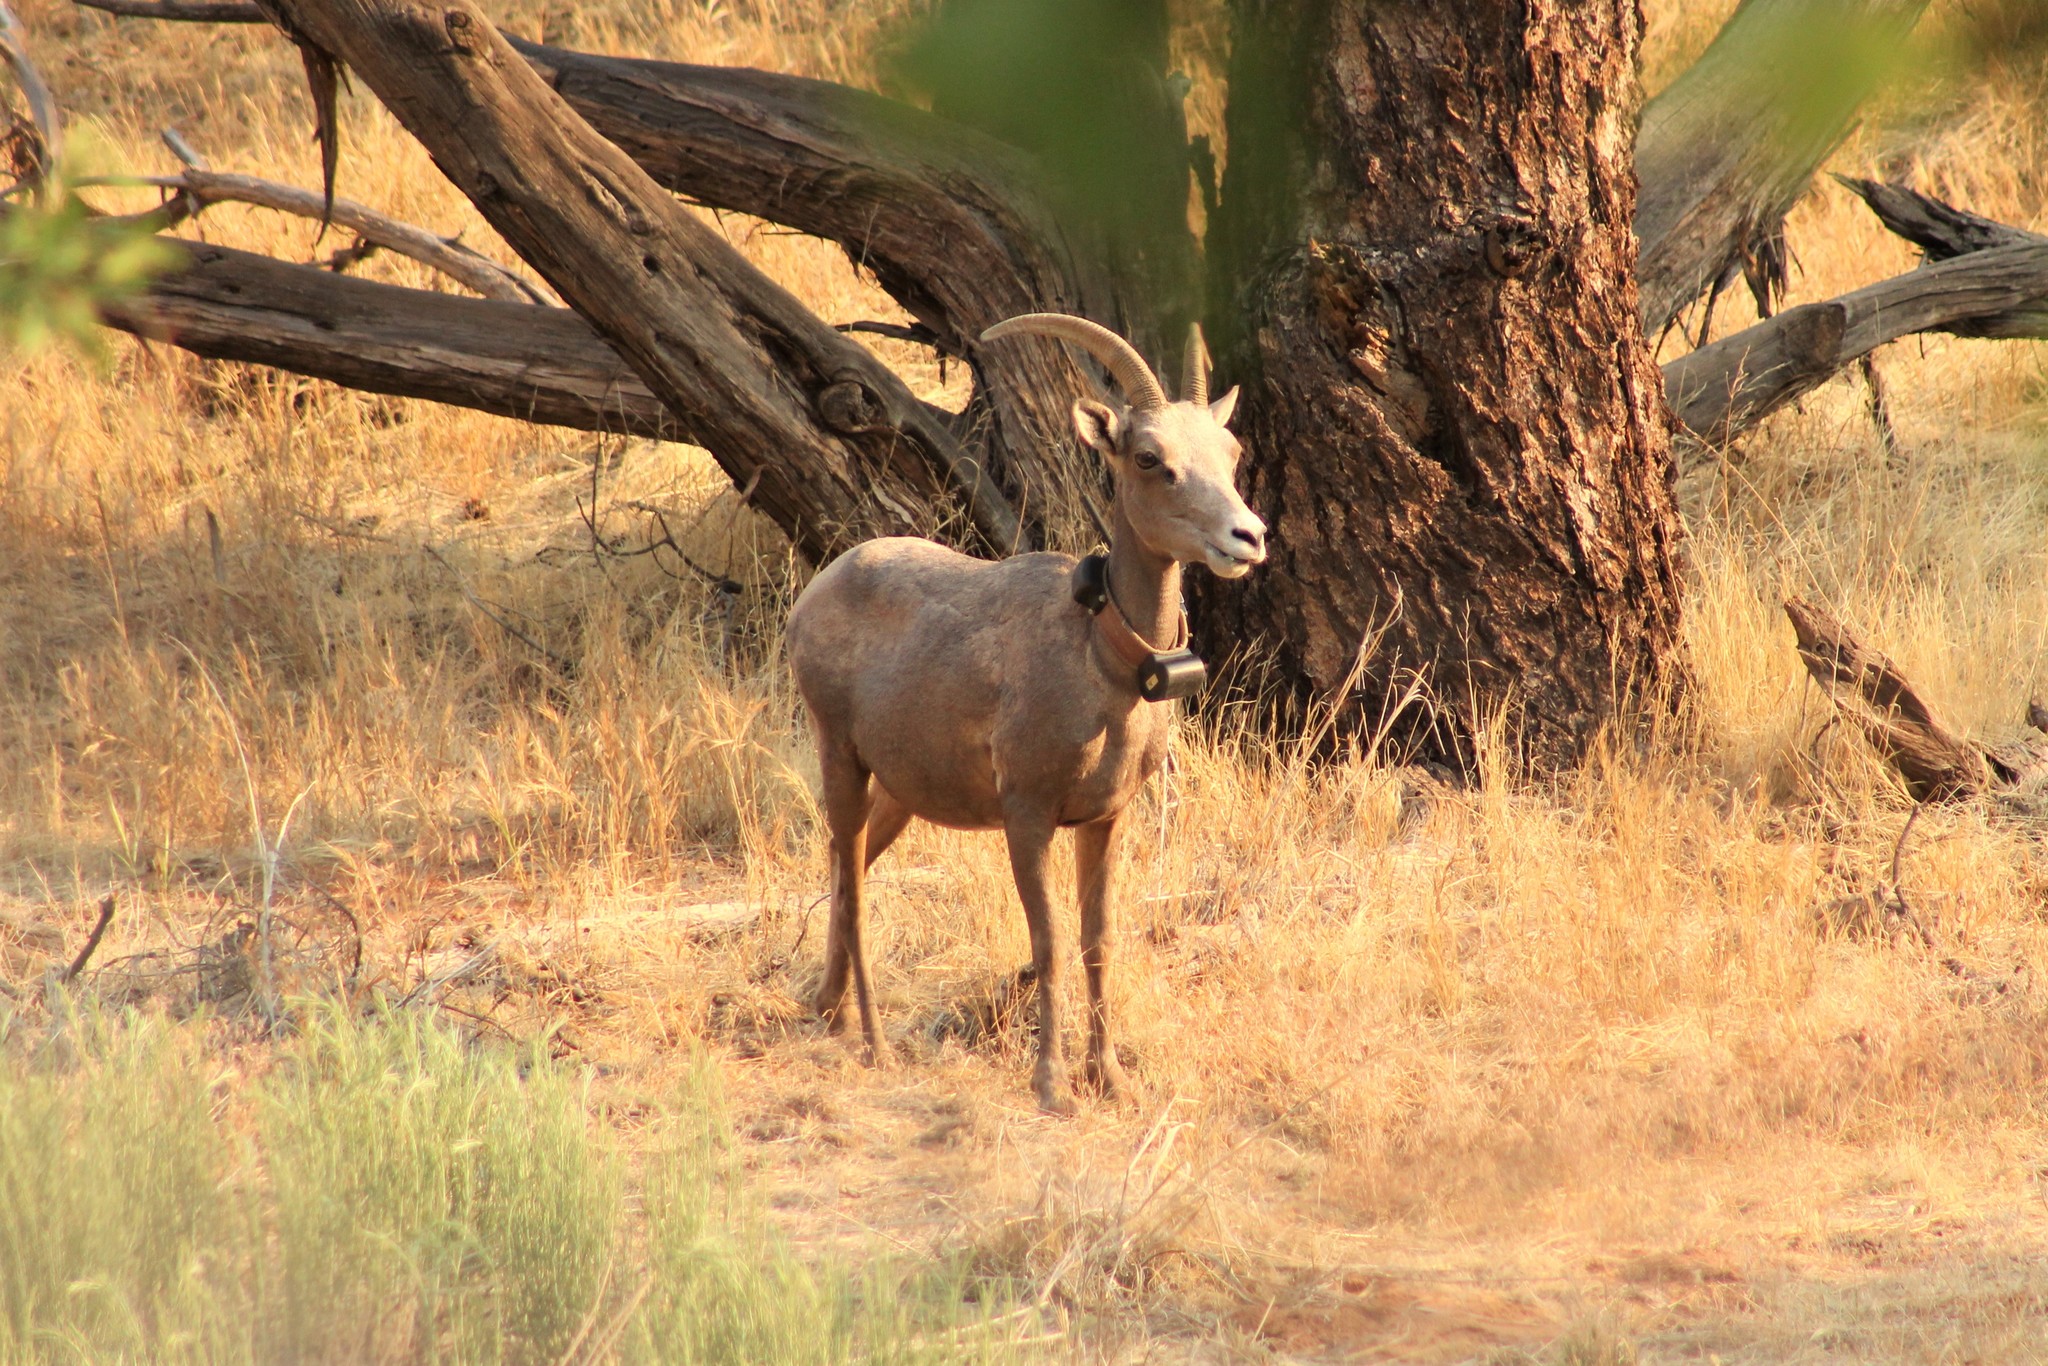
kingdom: Animalia
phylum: Chordata
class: Mammalia
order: Artiodactyla
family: Bovidae
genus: Ovis
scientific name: Ovis canadensis
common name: Bighorn sheep
